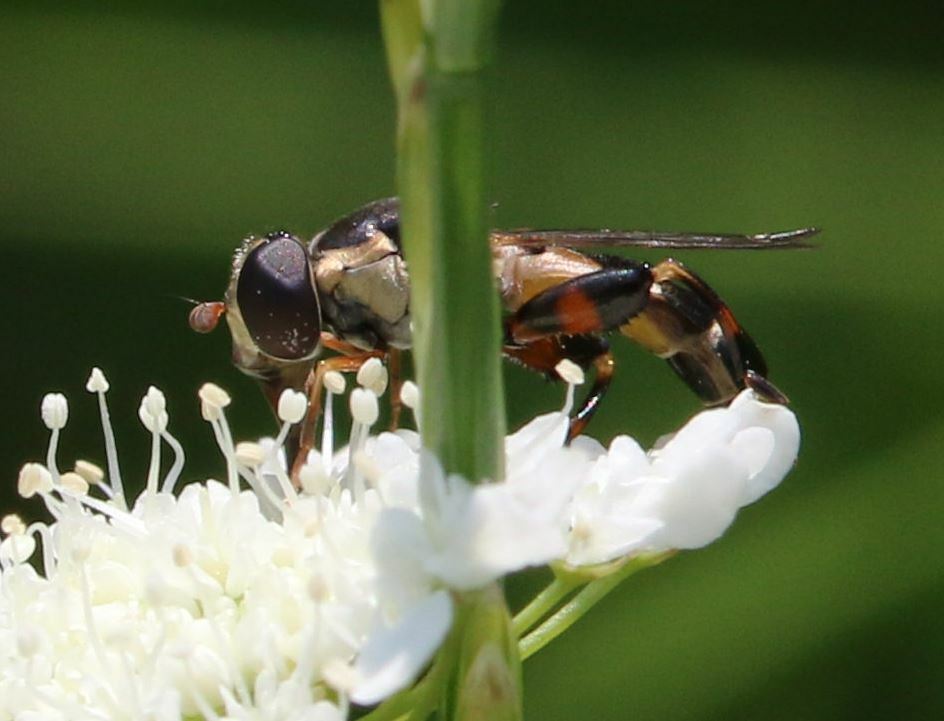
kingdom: Animalia
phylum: Arthropoda
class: Insecta
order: Diptera
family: Syrphidae
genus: Syritta
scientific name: Syritta pipiens
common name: Hover fly
